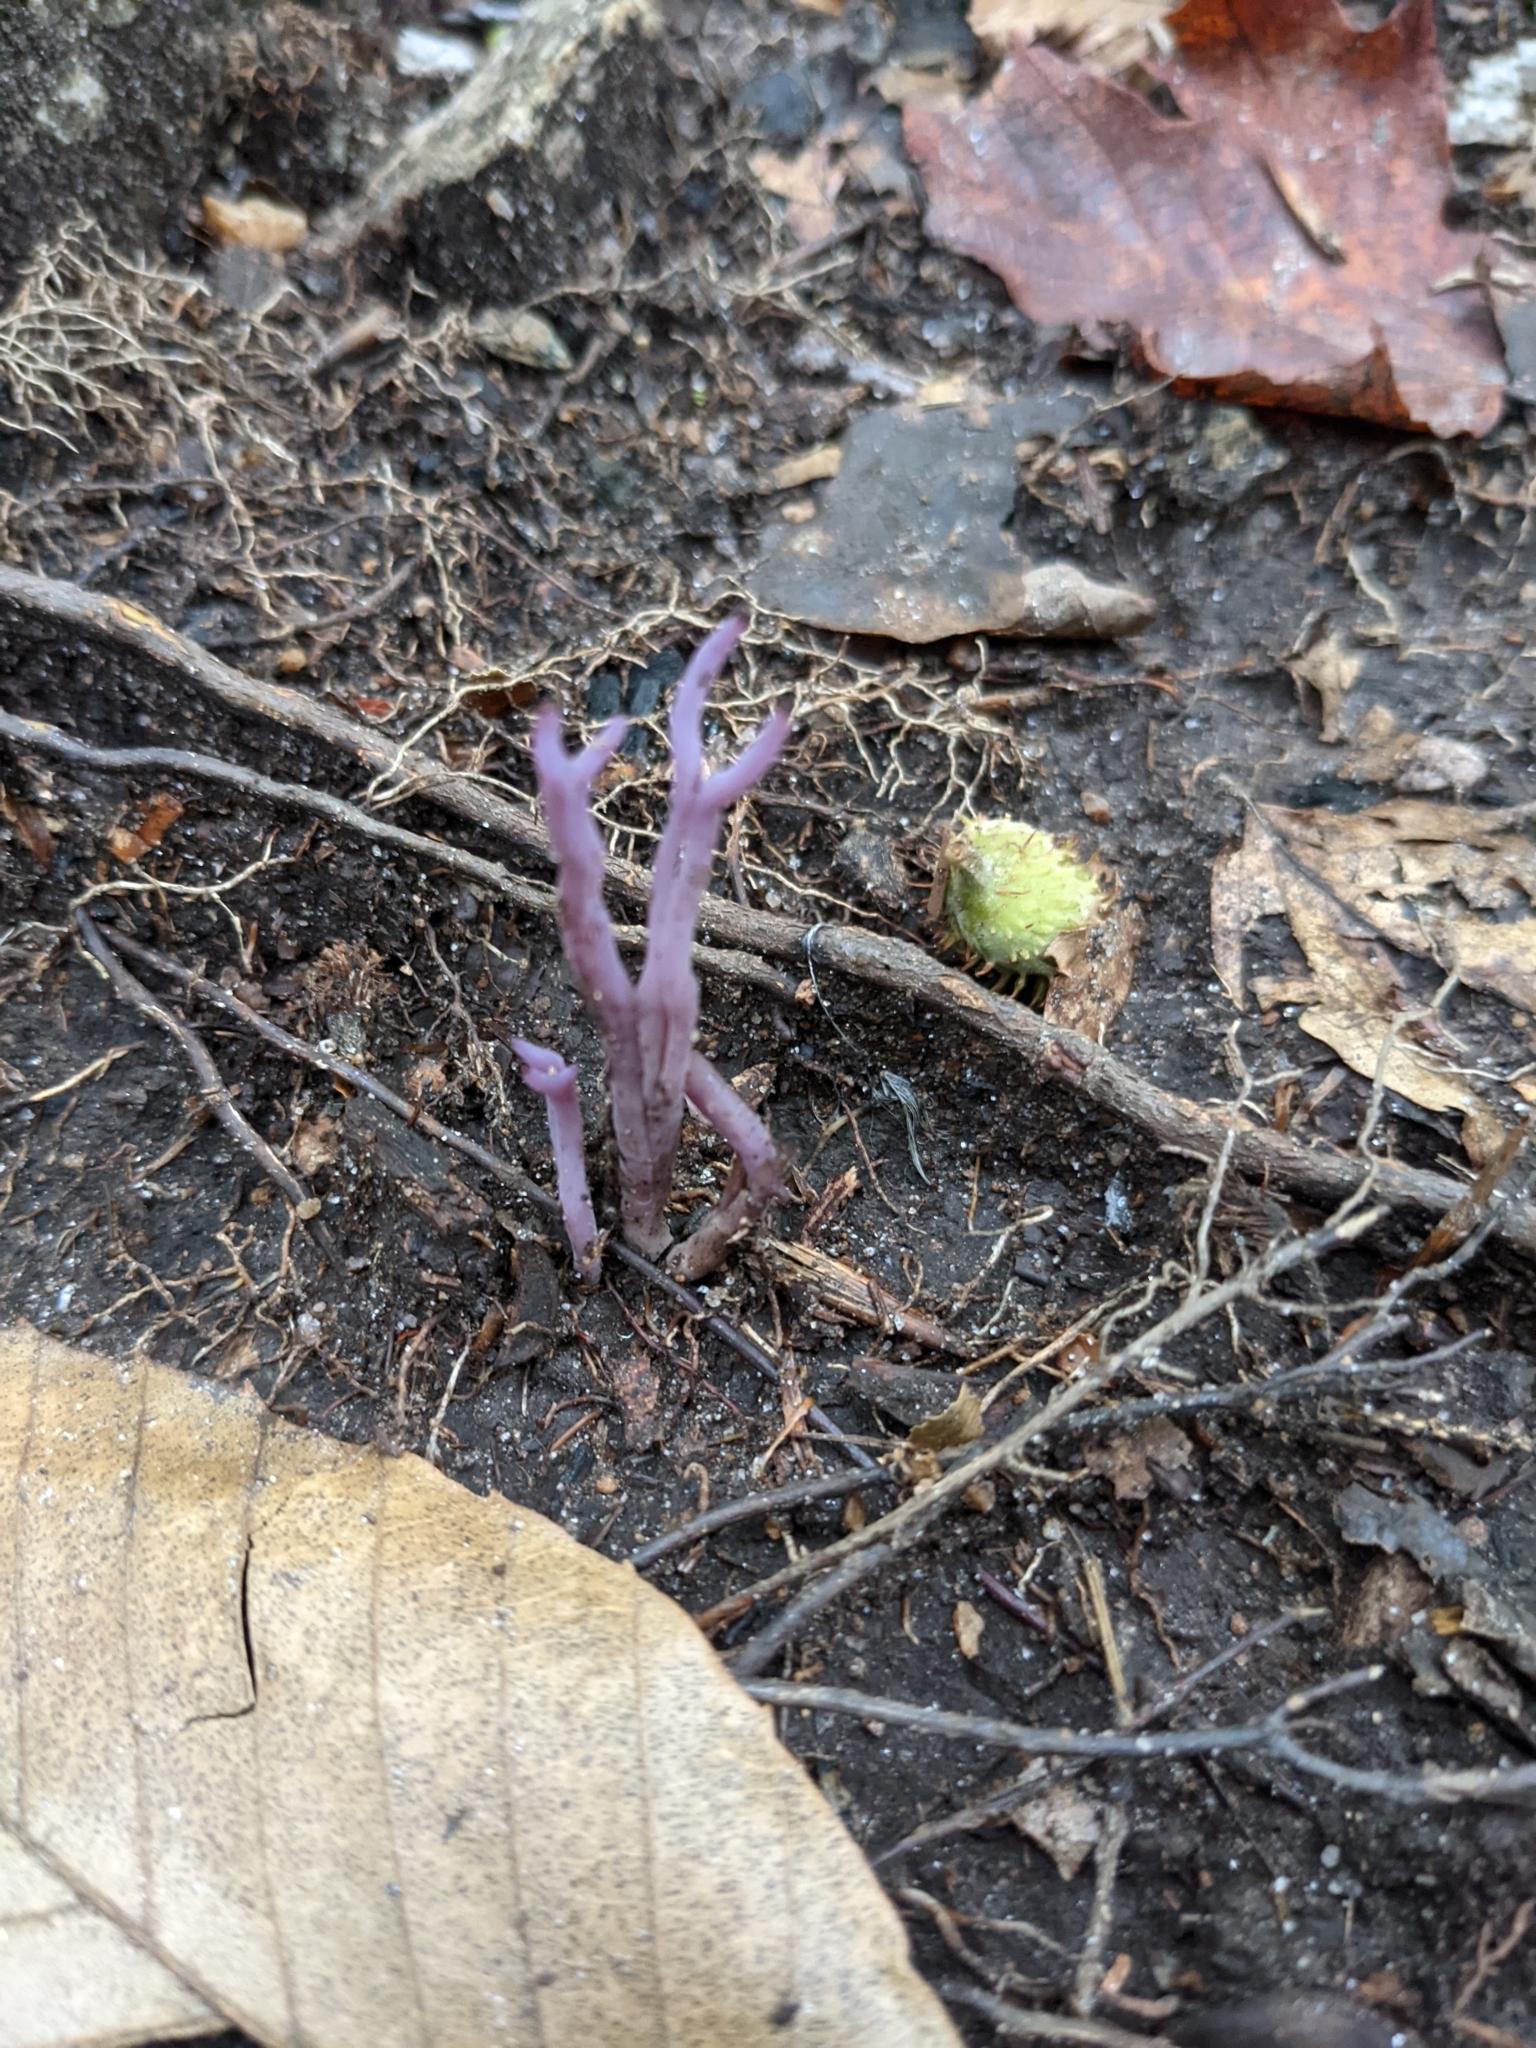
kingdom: Fungi
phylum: Basidiomycota
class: Agaricomycetes
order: Agaricales
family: Clavariaceae
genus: Clavaria
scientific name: Clavaria zollingeri
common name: Violet coral
